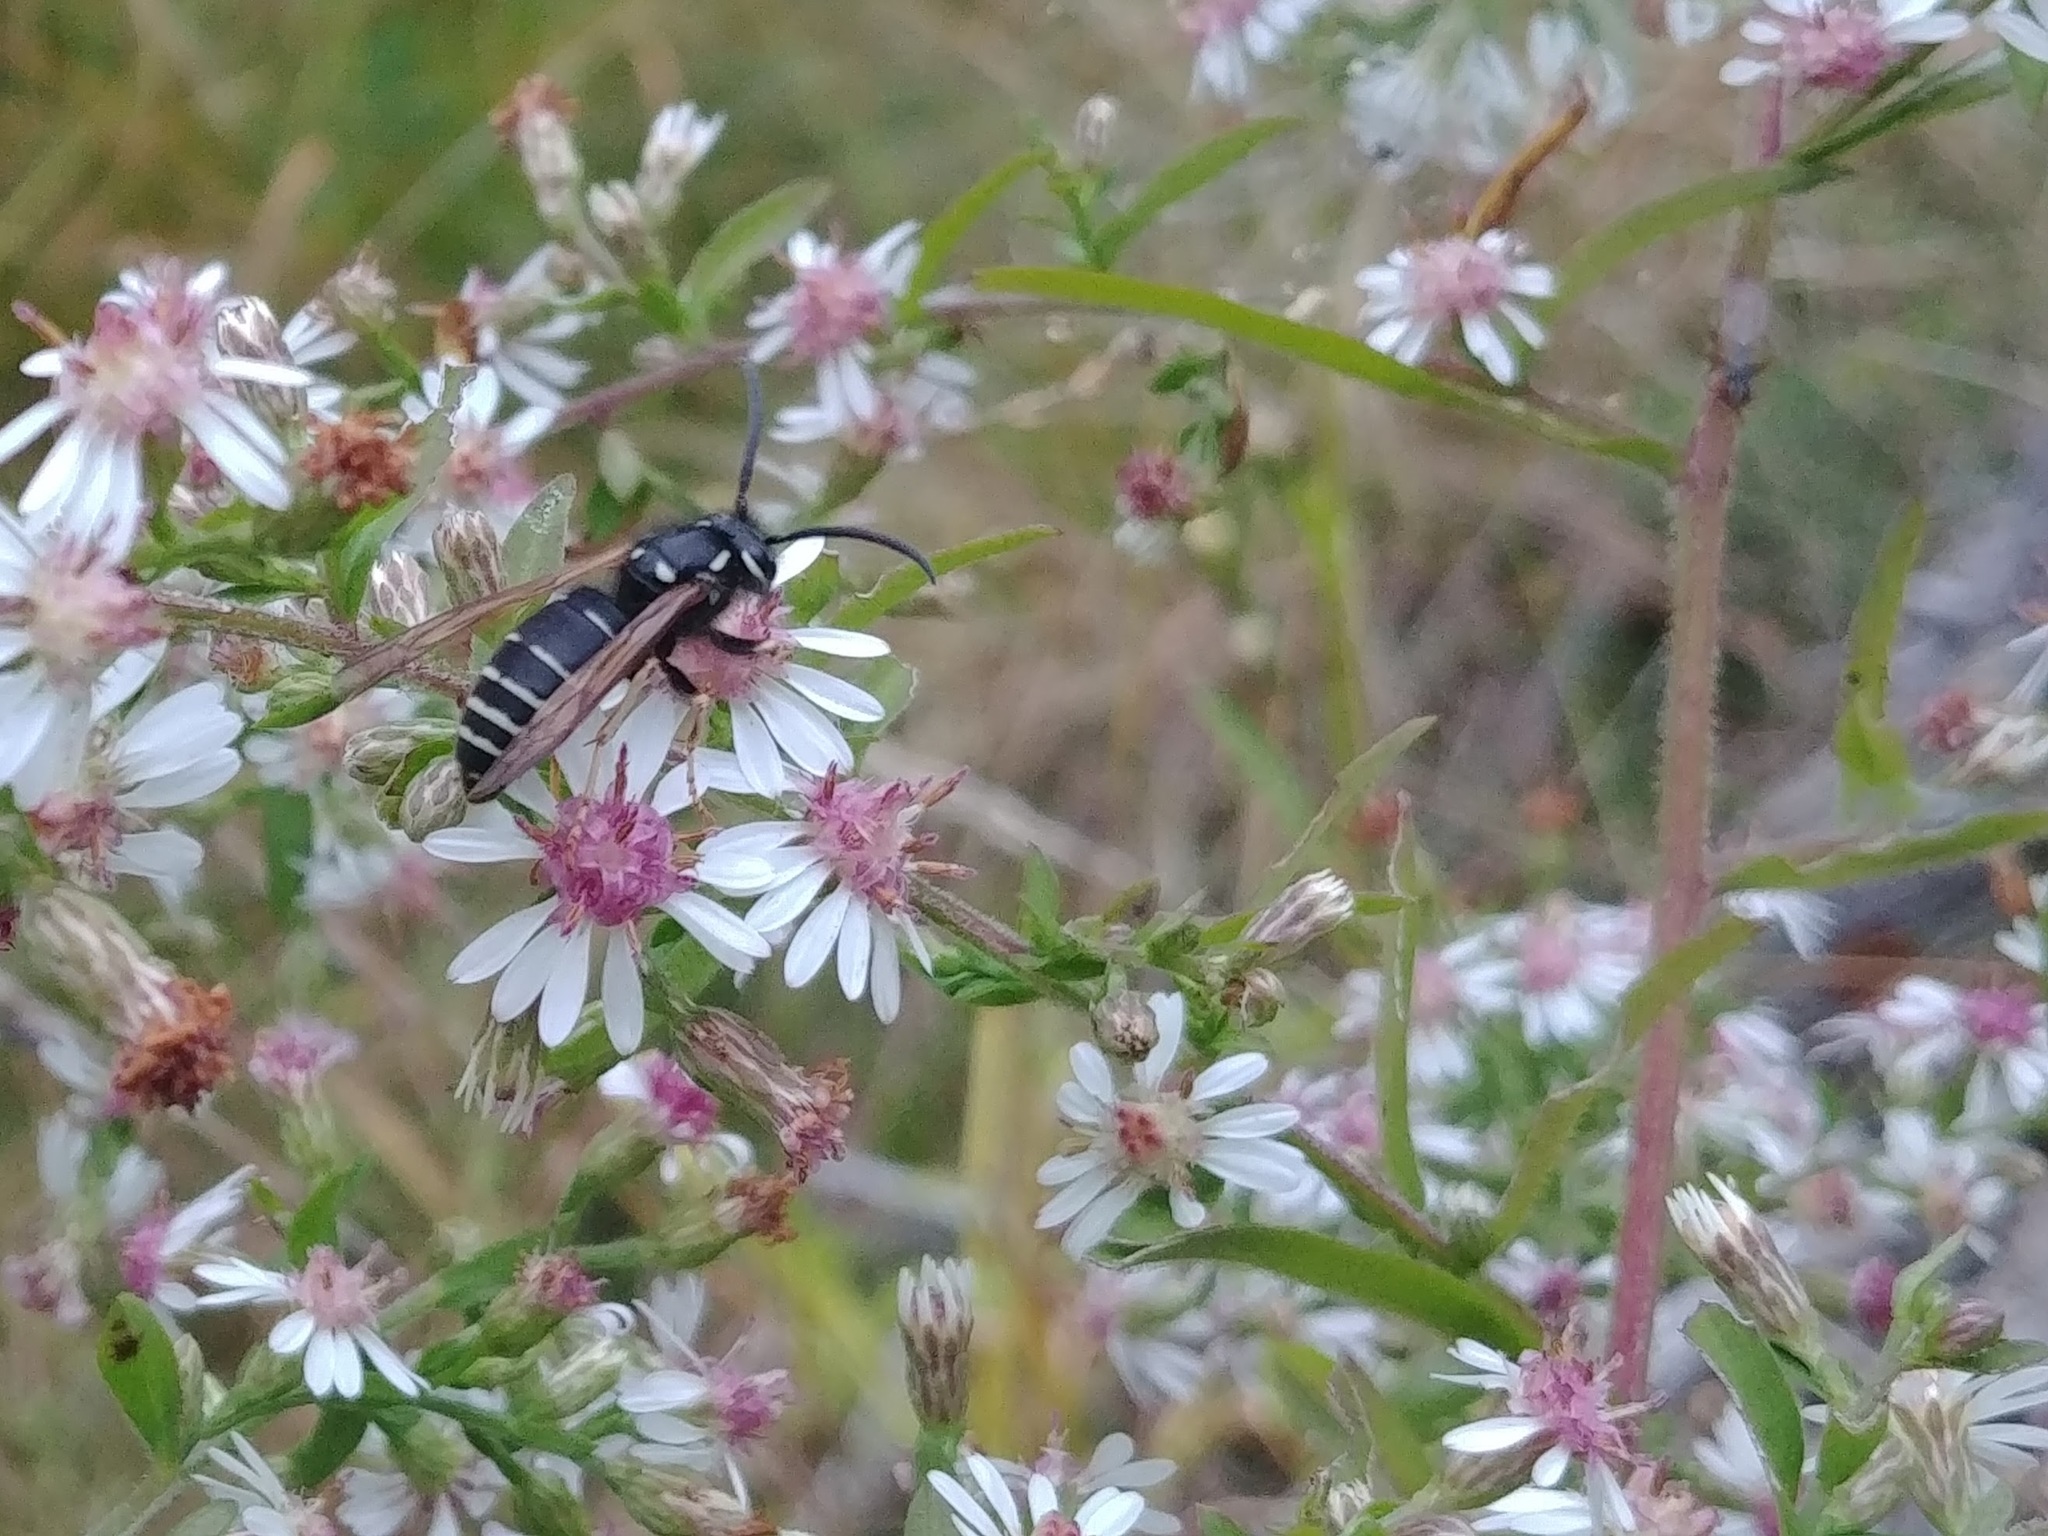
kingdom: Animalia
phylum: Arthropoda
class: Insecta
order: Hymenoptera
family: Vespidae
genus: Vespula
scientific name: Vespula consobrina
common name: Blackjacket
